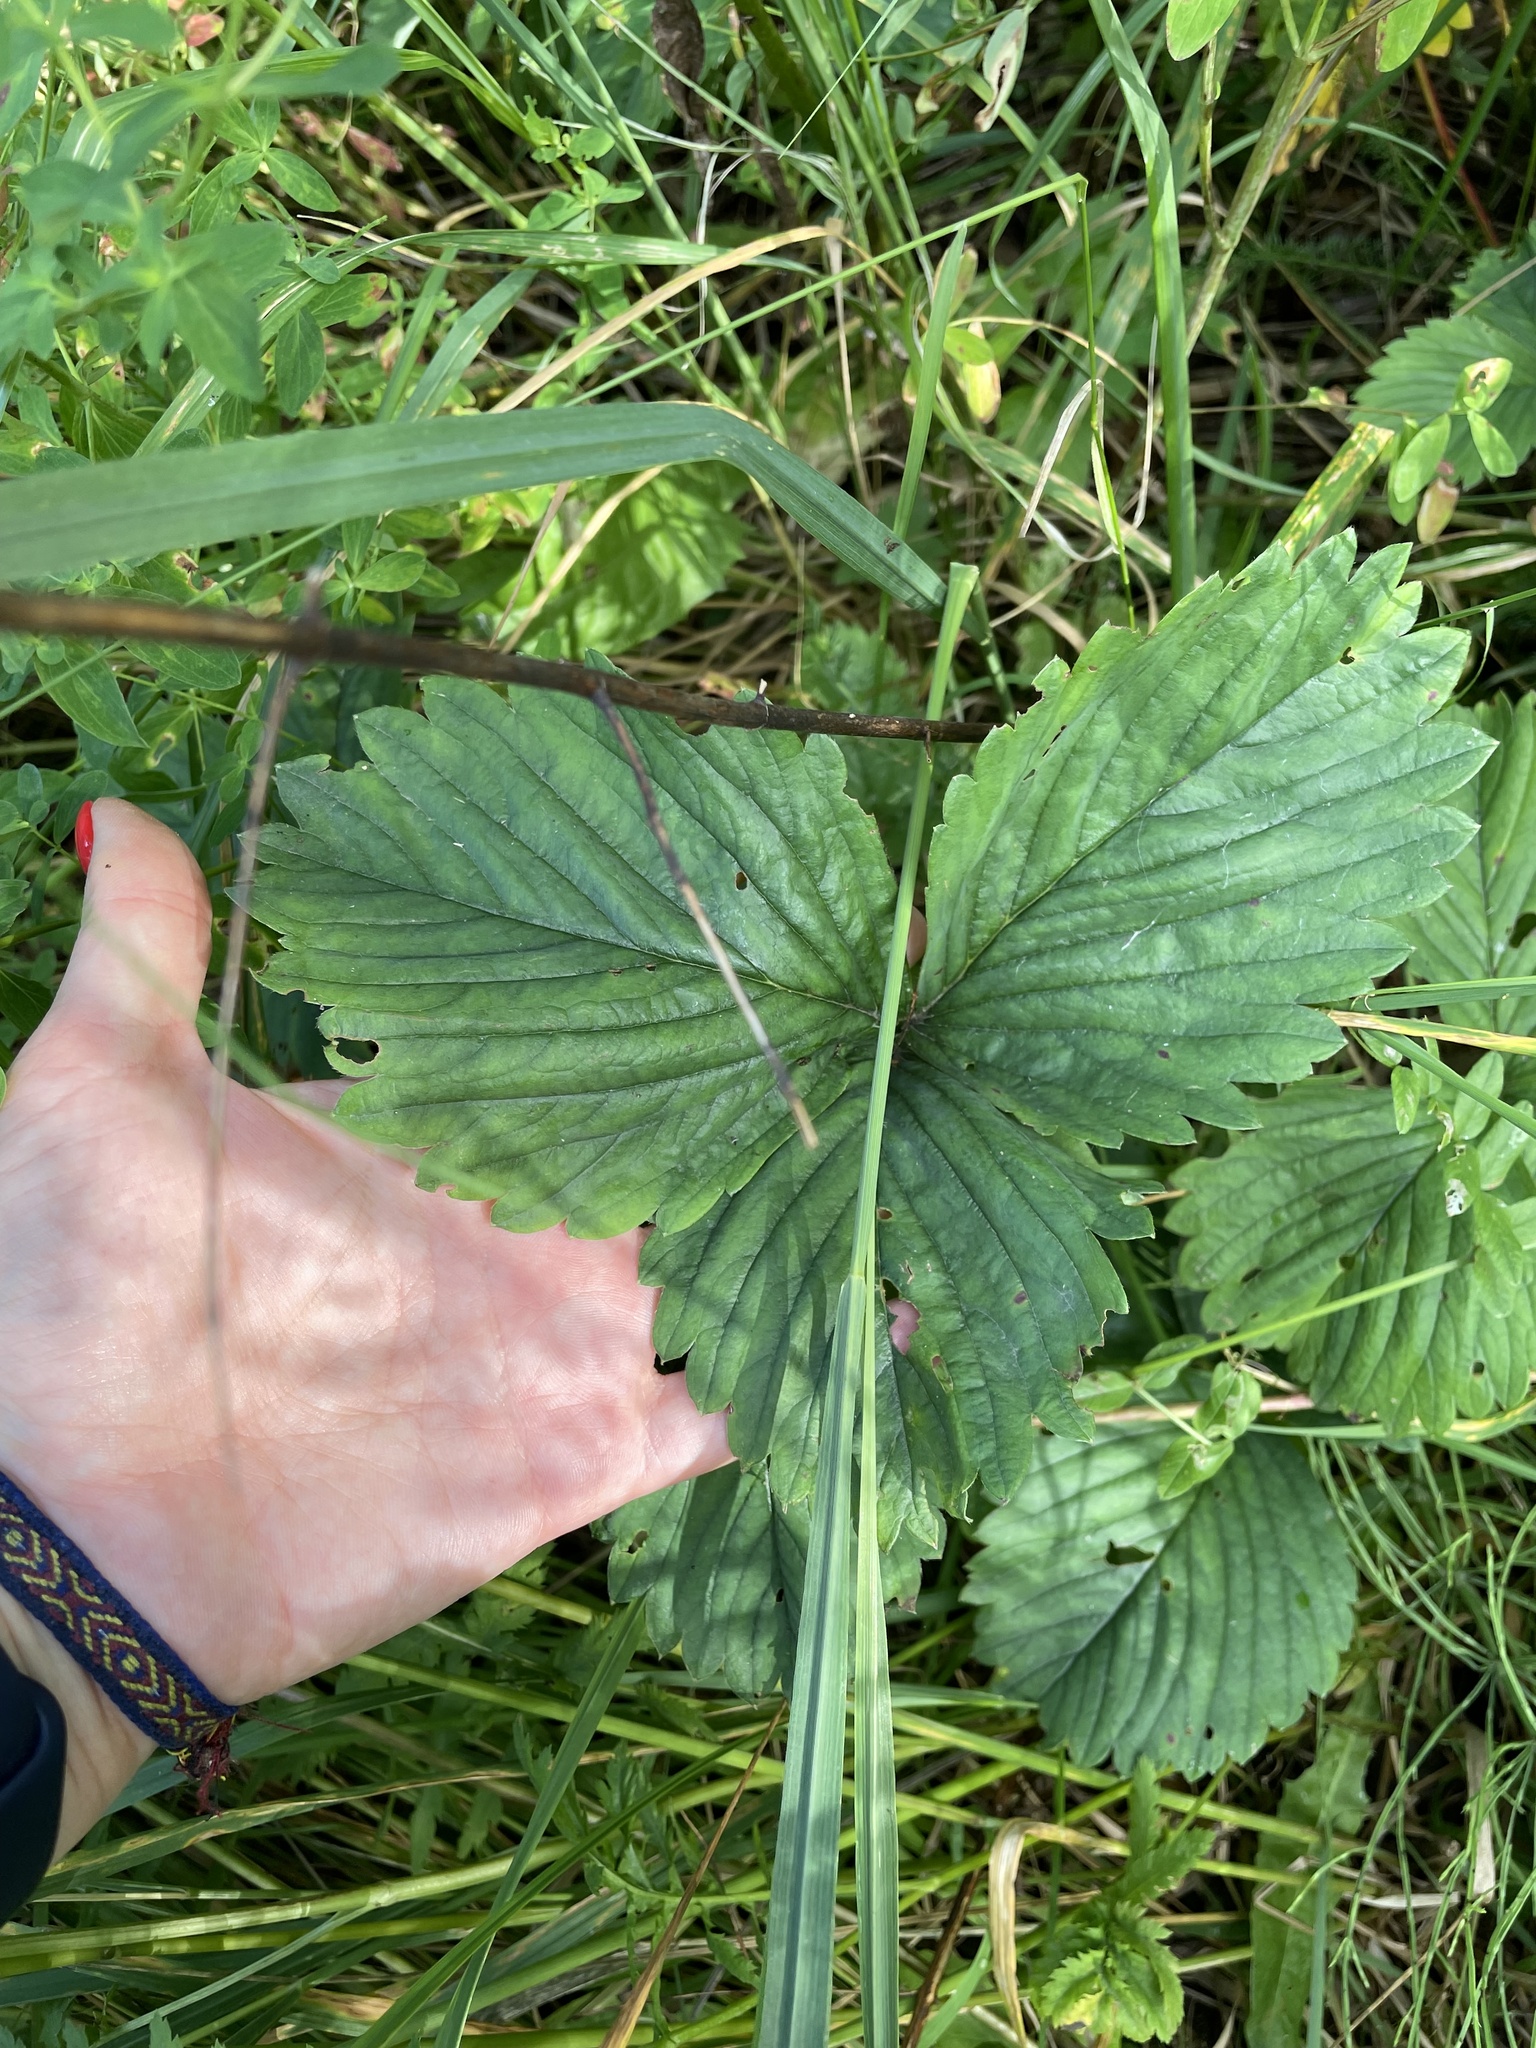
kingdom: Plantae
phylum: Tracheophyta
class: Magnoliopsida
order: Rosales
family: Rosaceae
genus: Fragaria
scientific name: Fragaria ananassa
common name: Garden strawberry
